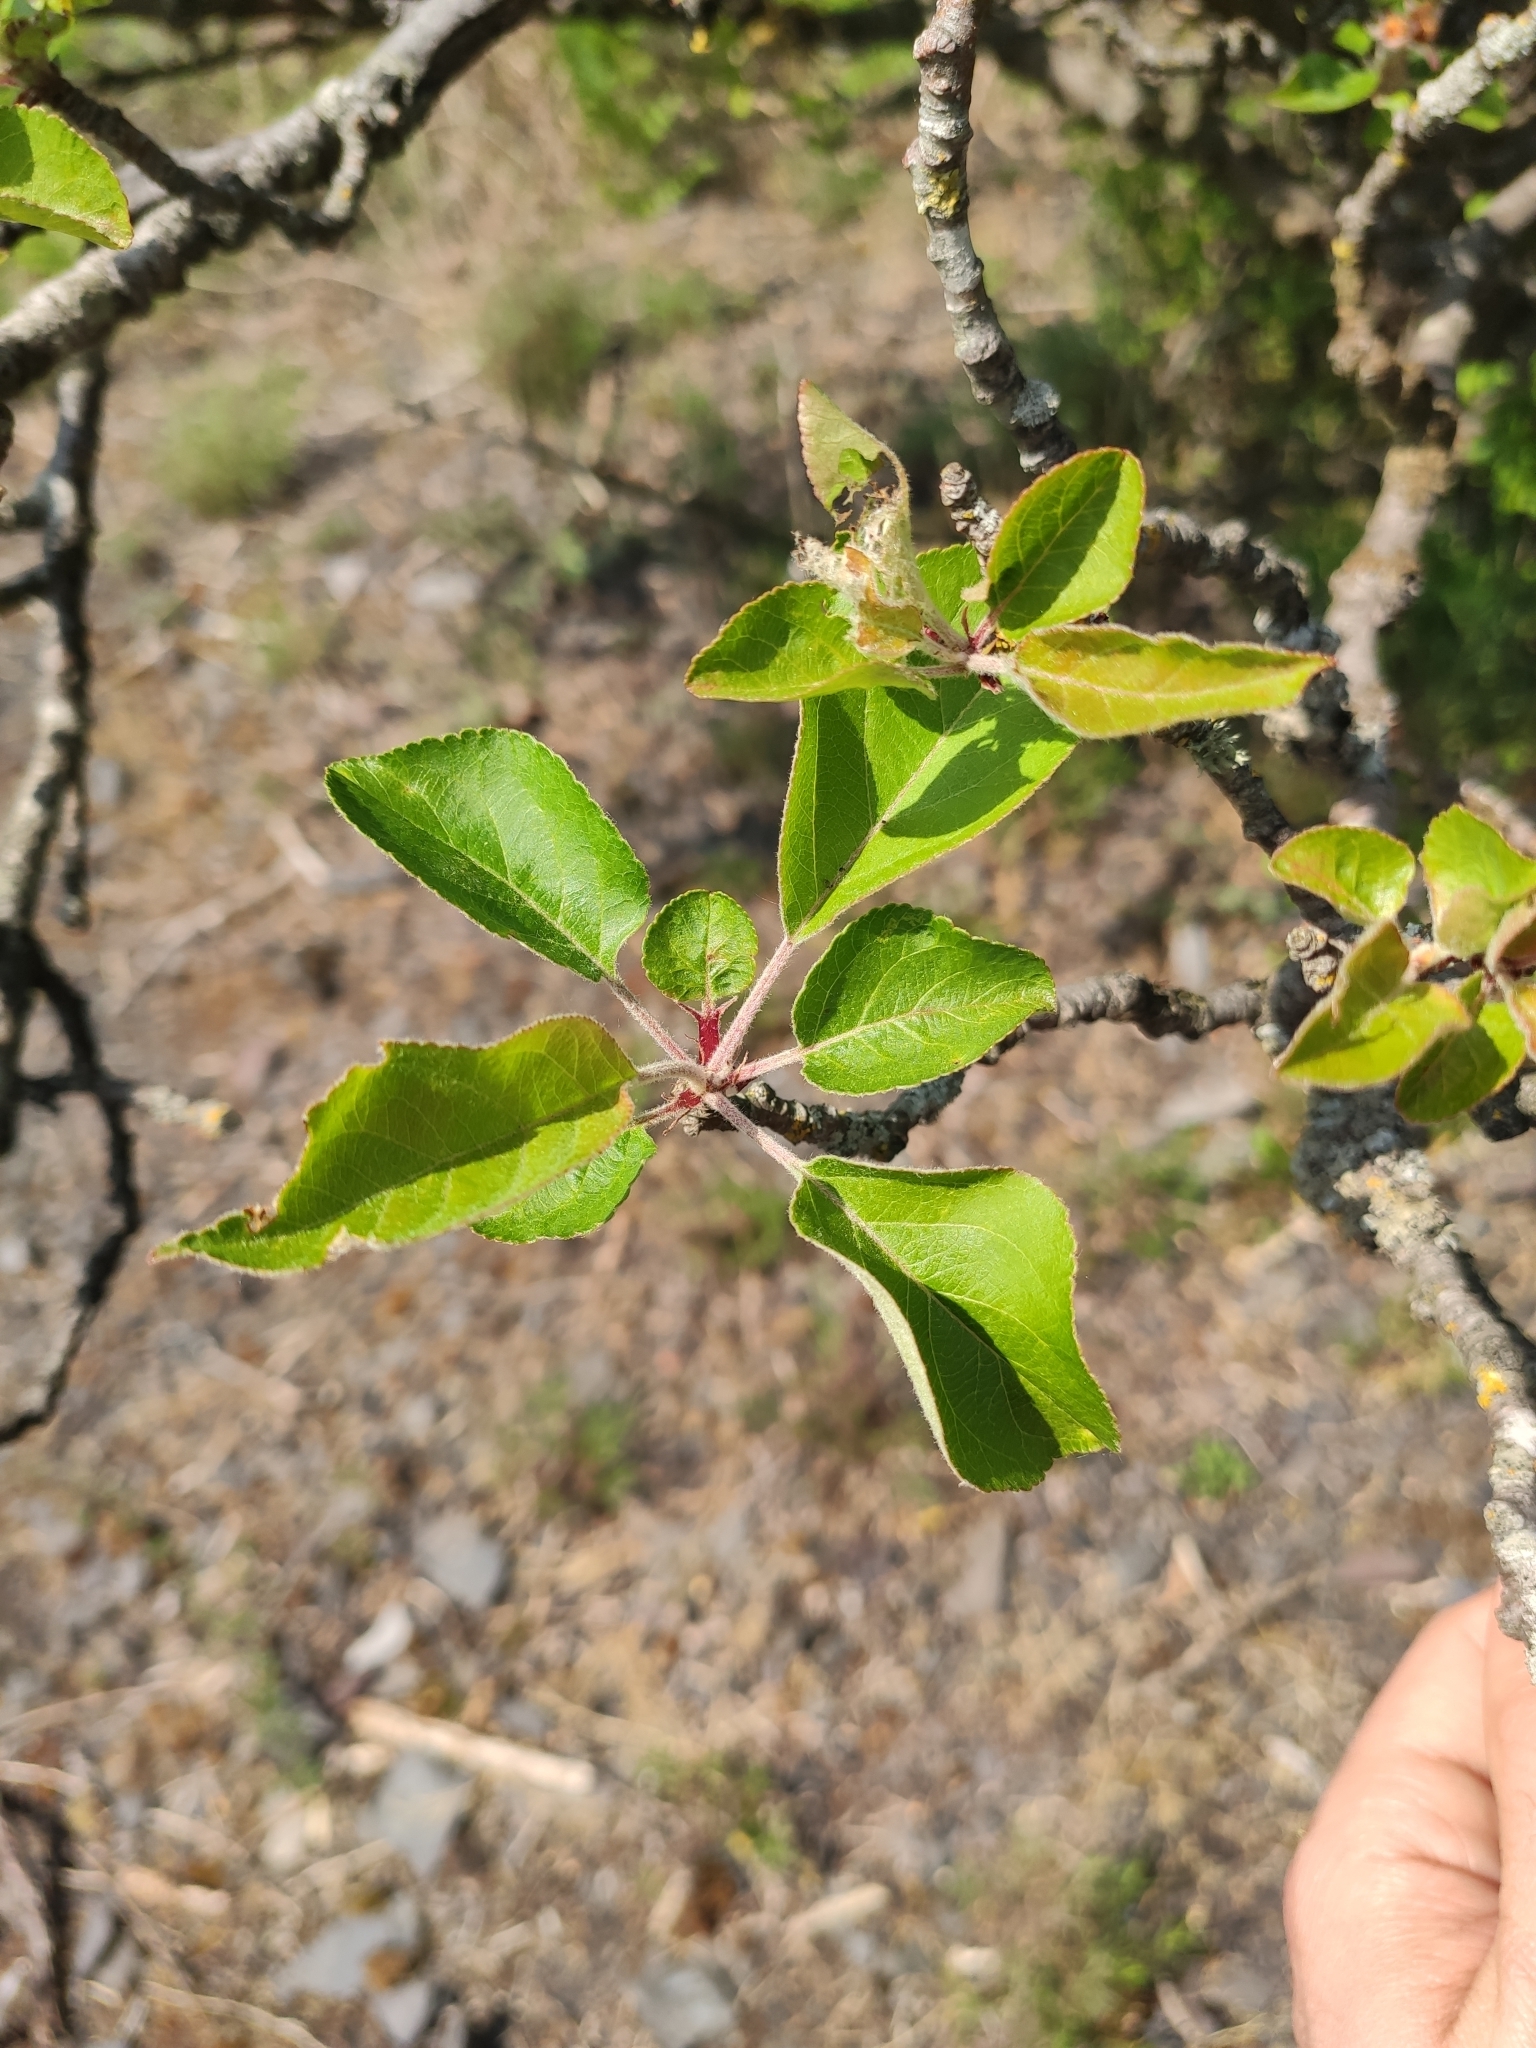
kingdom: Plantae
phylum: Tracheophyta
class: Magnoliopsida
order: Rosales
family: Rosaceae
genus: Malus
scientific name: Malus domestica
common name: Apple
